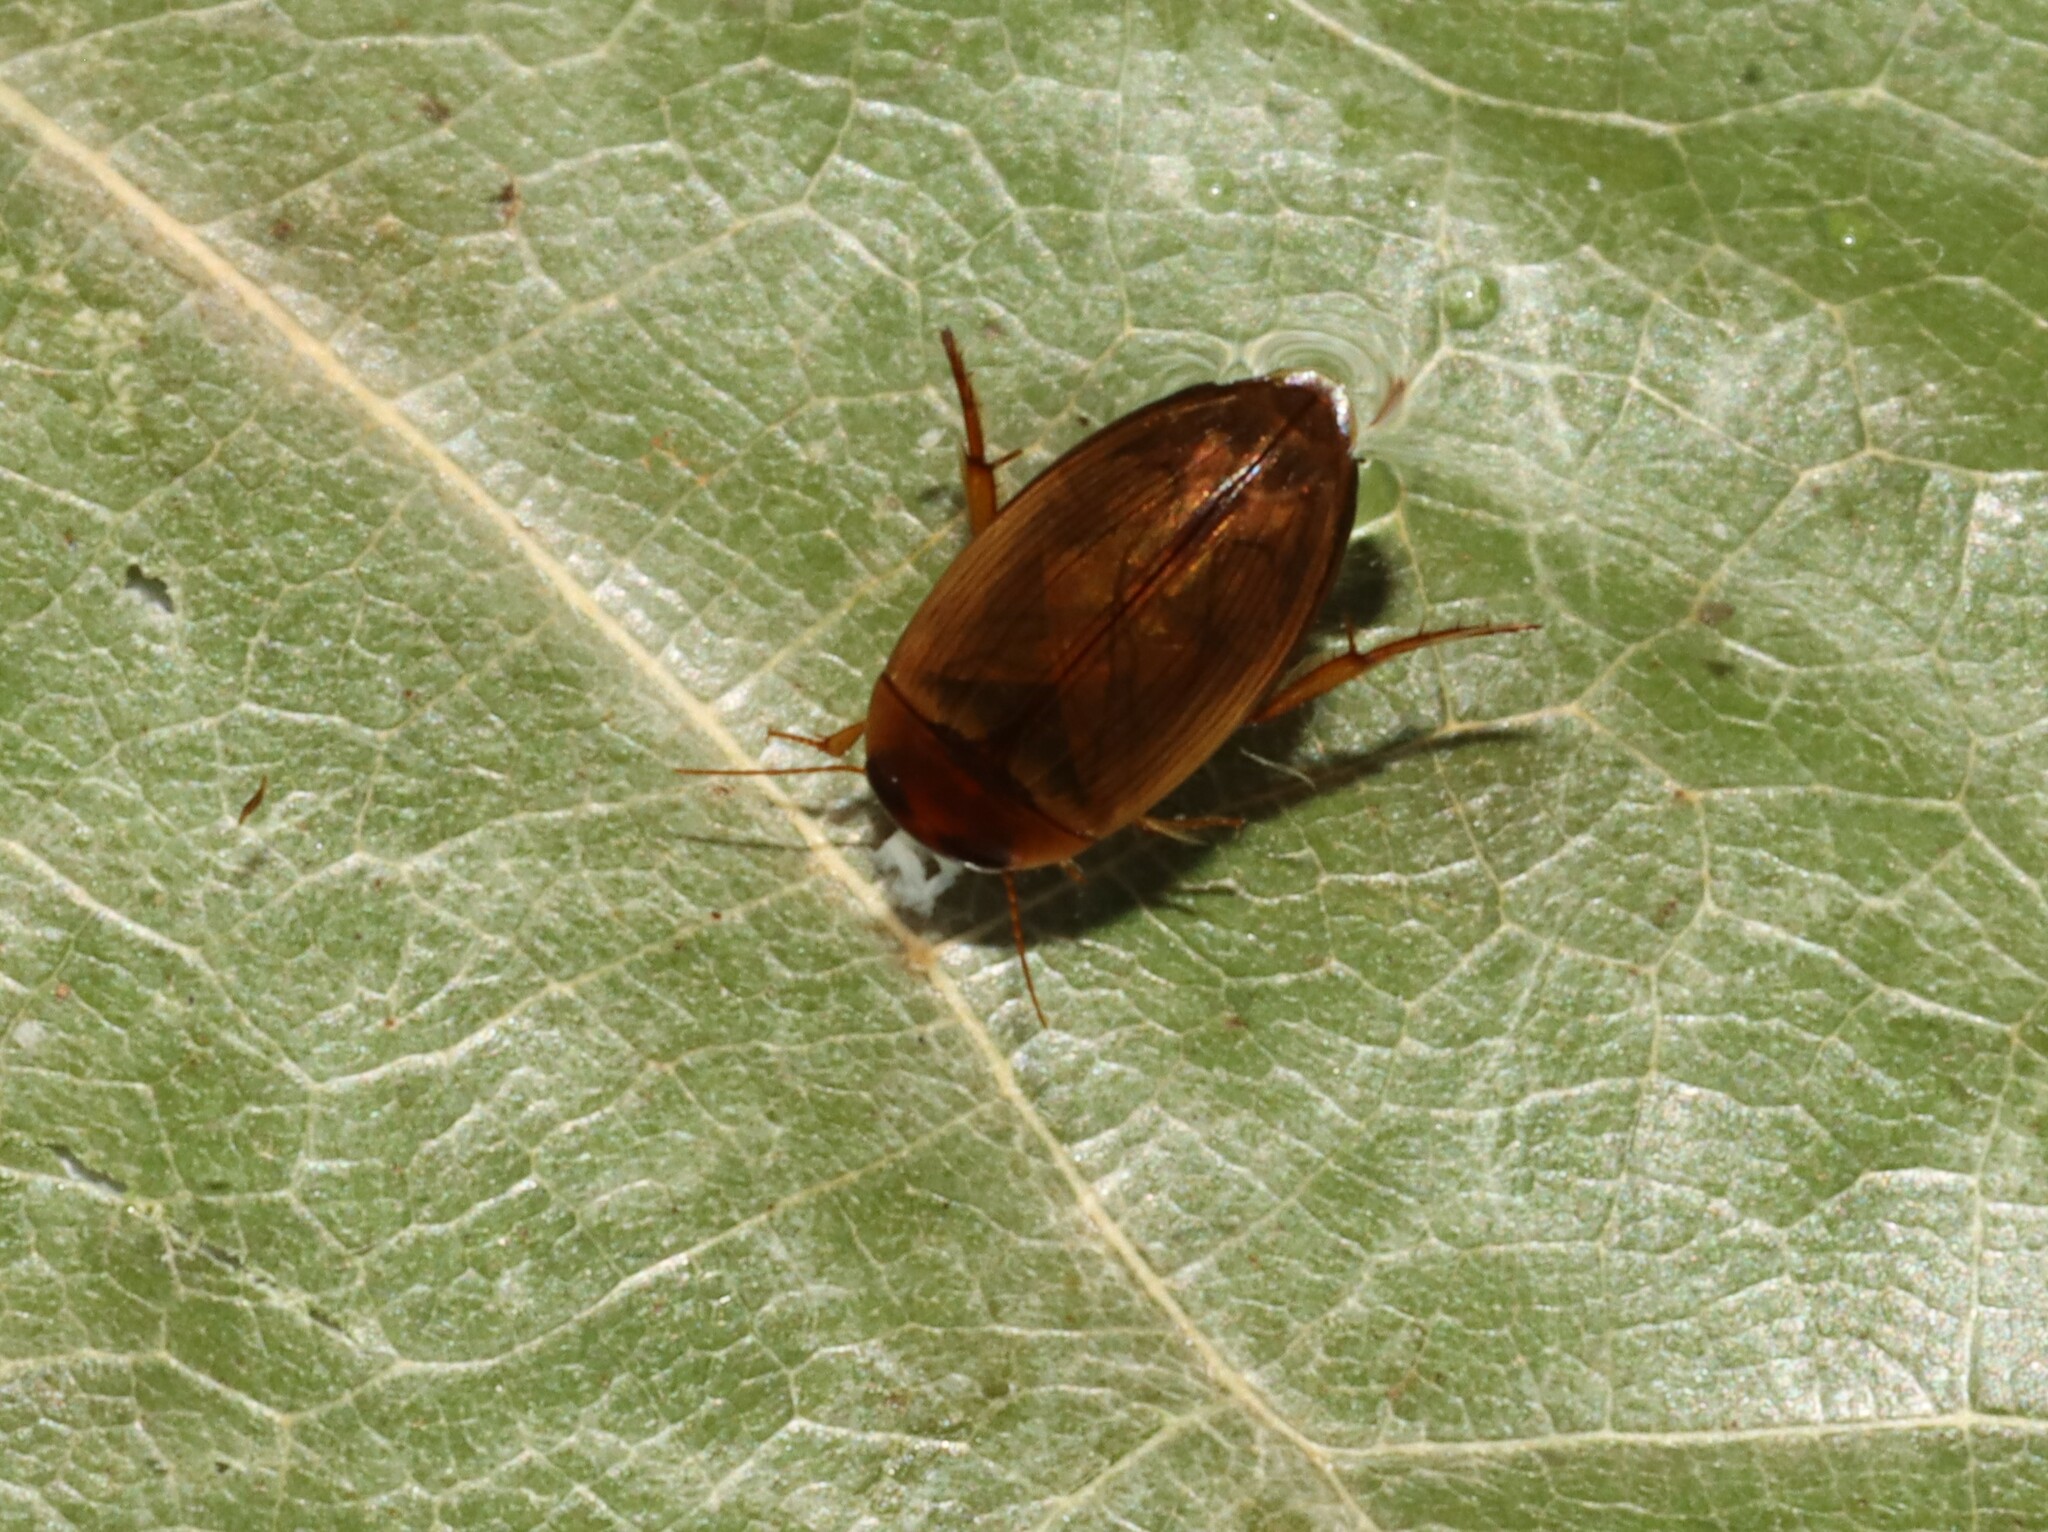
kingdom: Animalia
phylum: Arthropoda
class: Insecta
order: Coleoptera
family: Dytiscidae
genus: Copelatus
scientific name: Copelatus chevrolati
